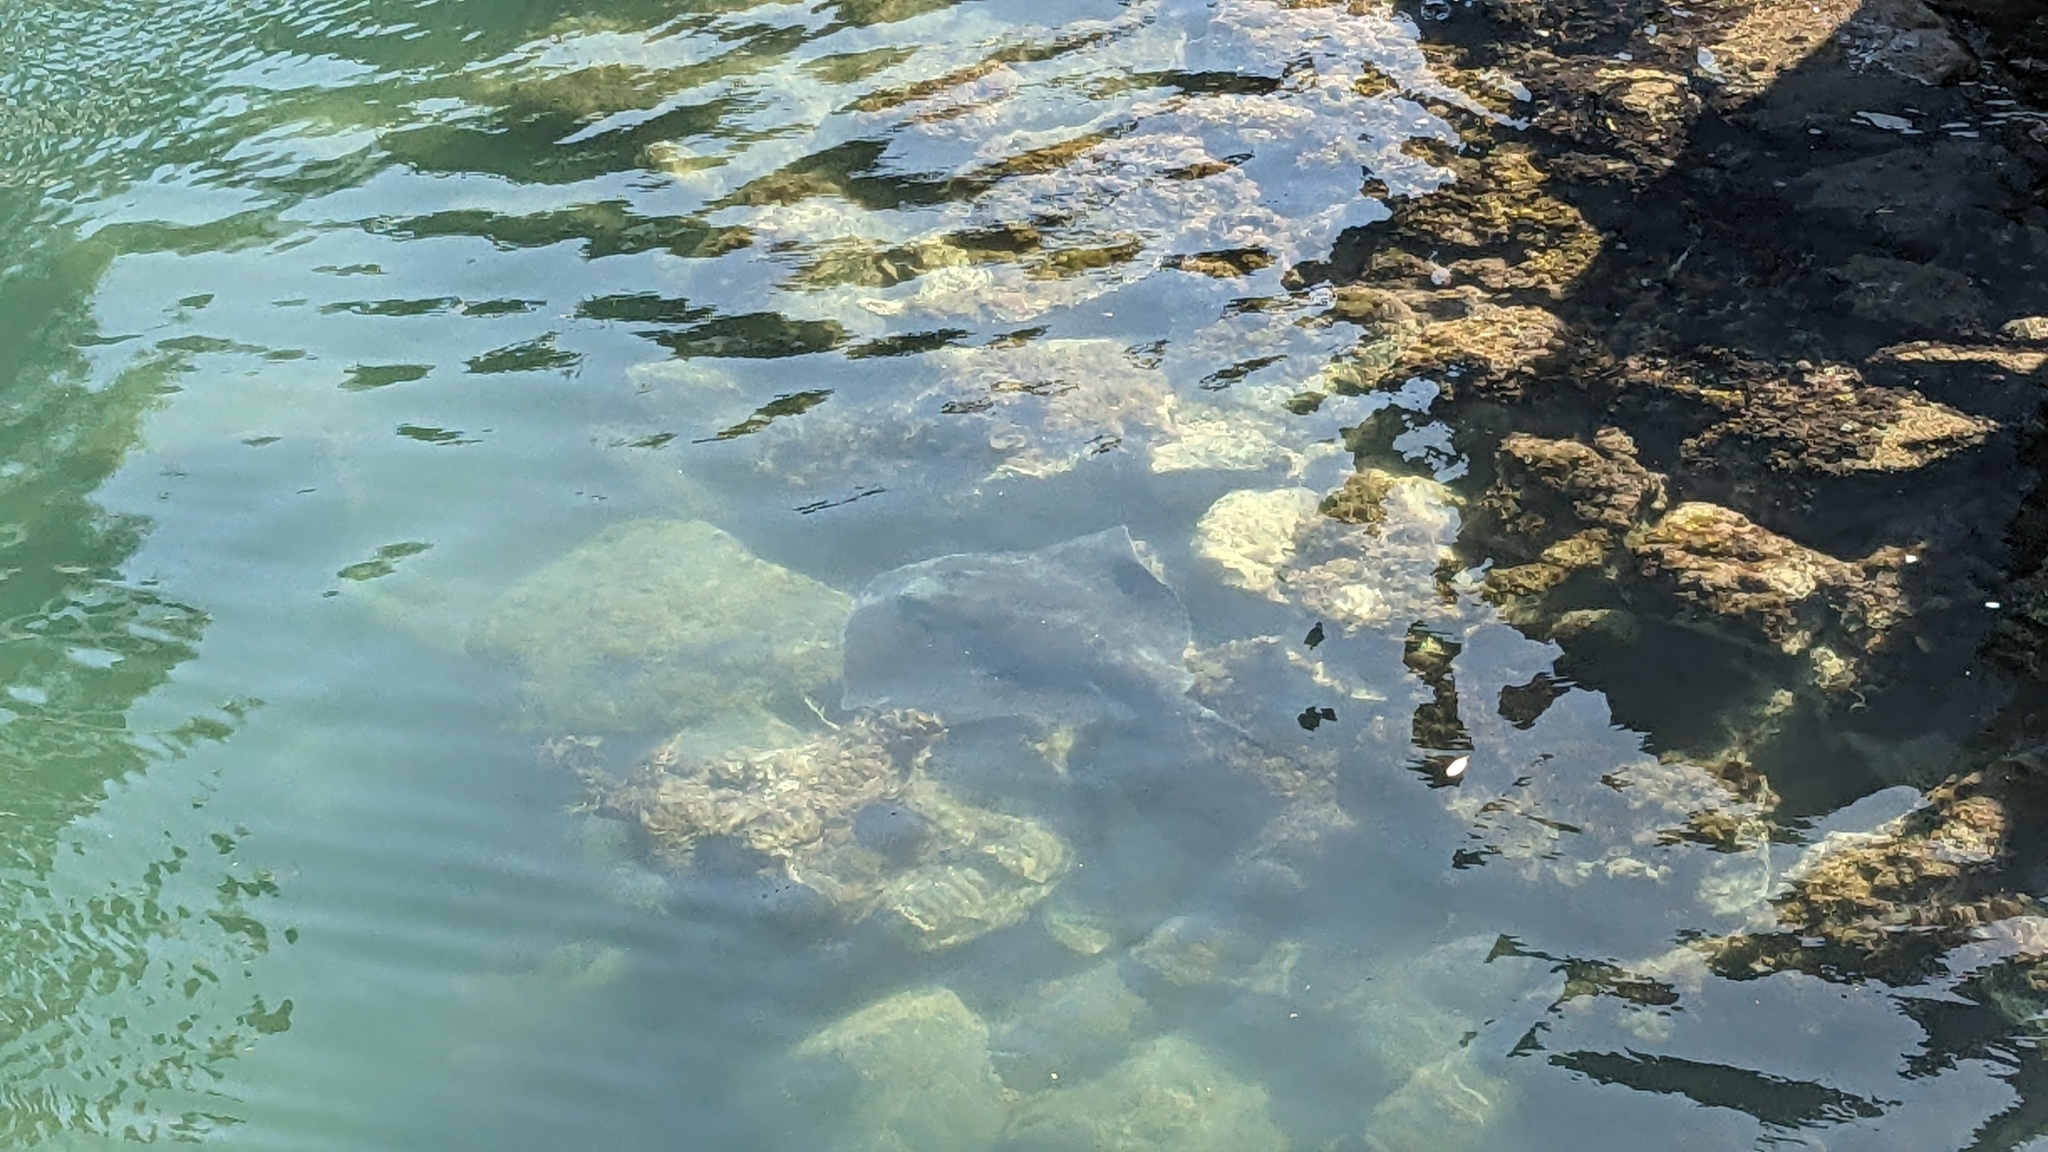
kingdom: Animalia
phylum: Chordata
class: Elasmobranchii
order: Myliobatiformes
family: Dasyatidae
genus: Bathytoshia
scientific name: Bathytoshia brevicaudata
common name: Short-tail stingray
